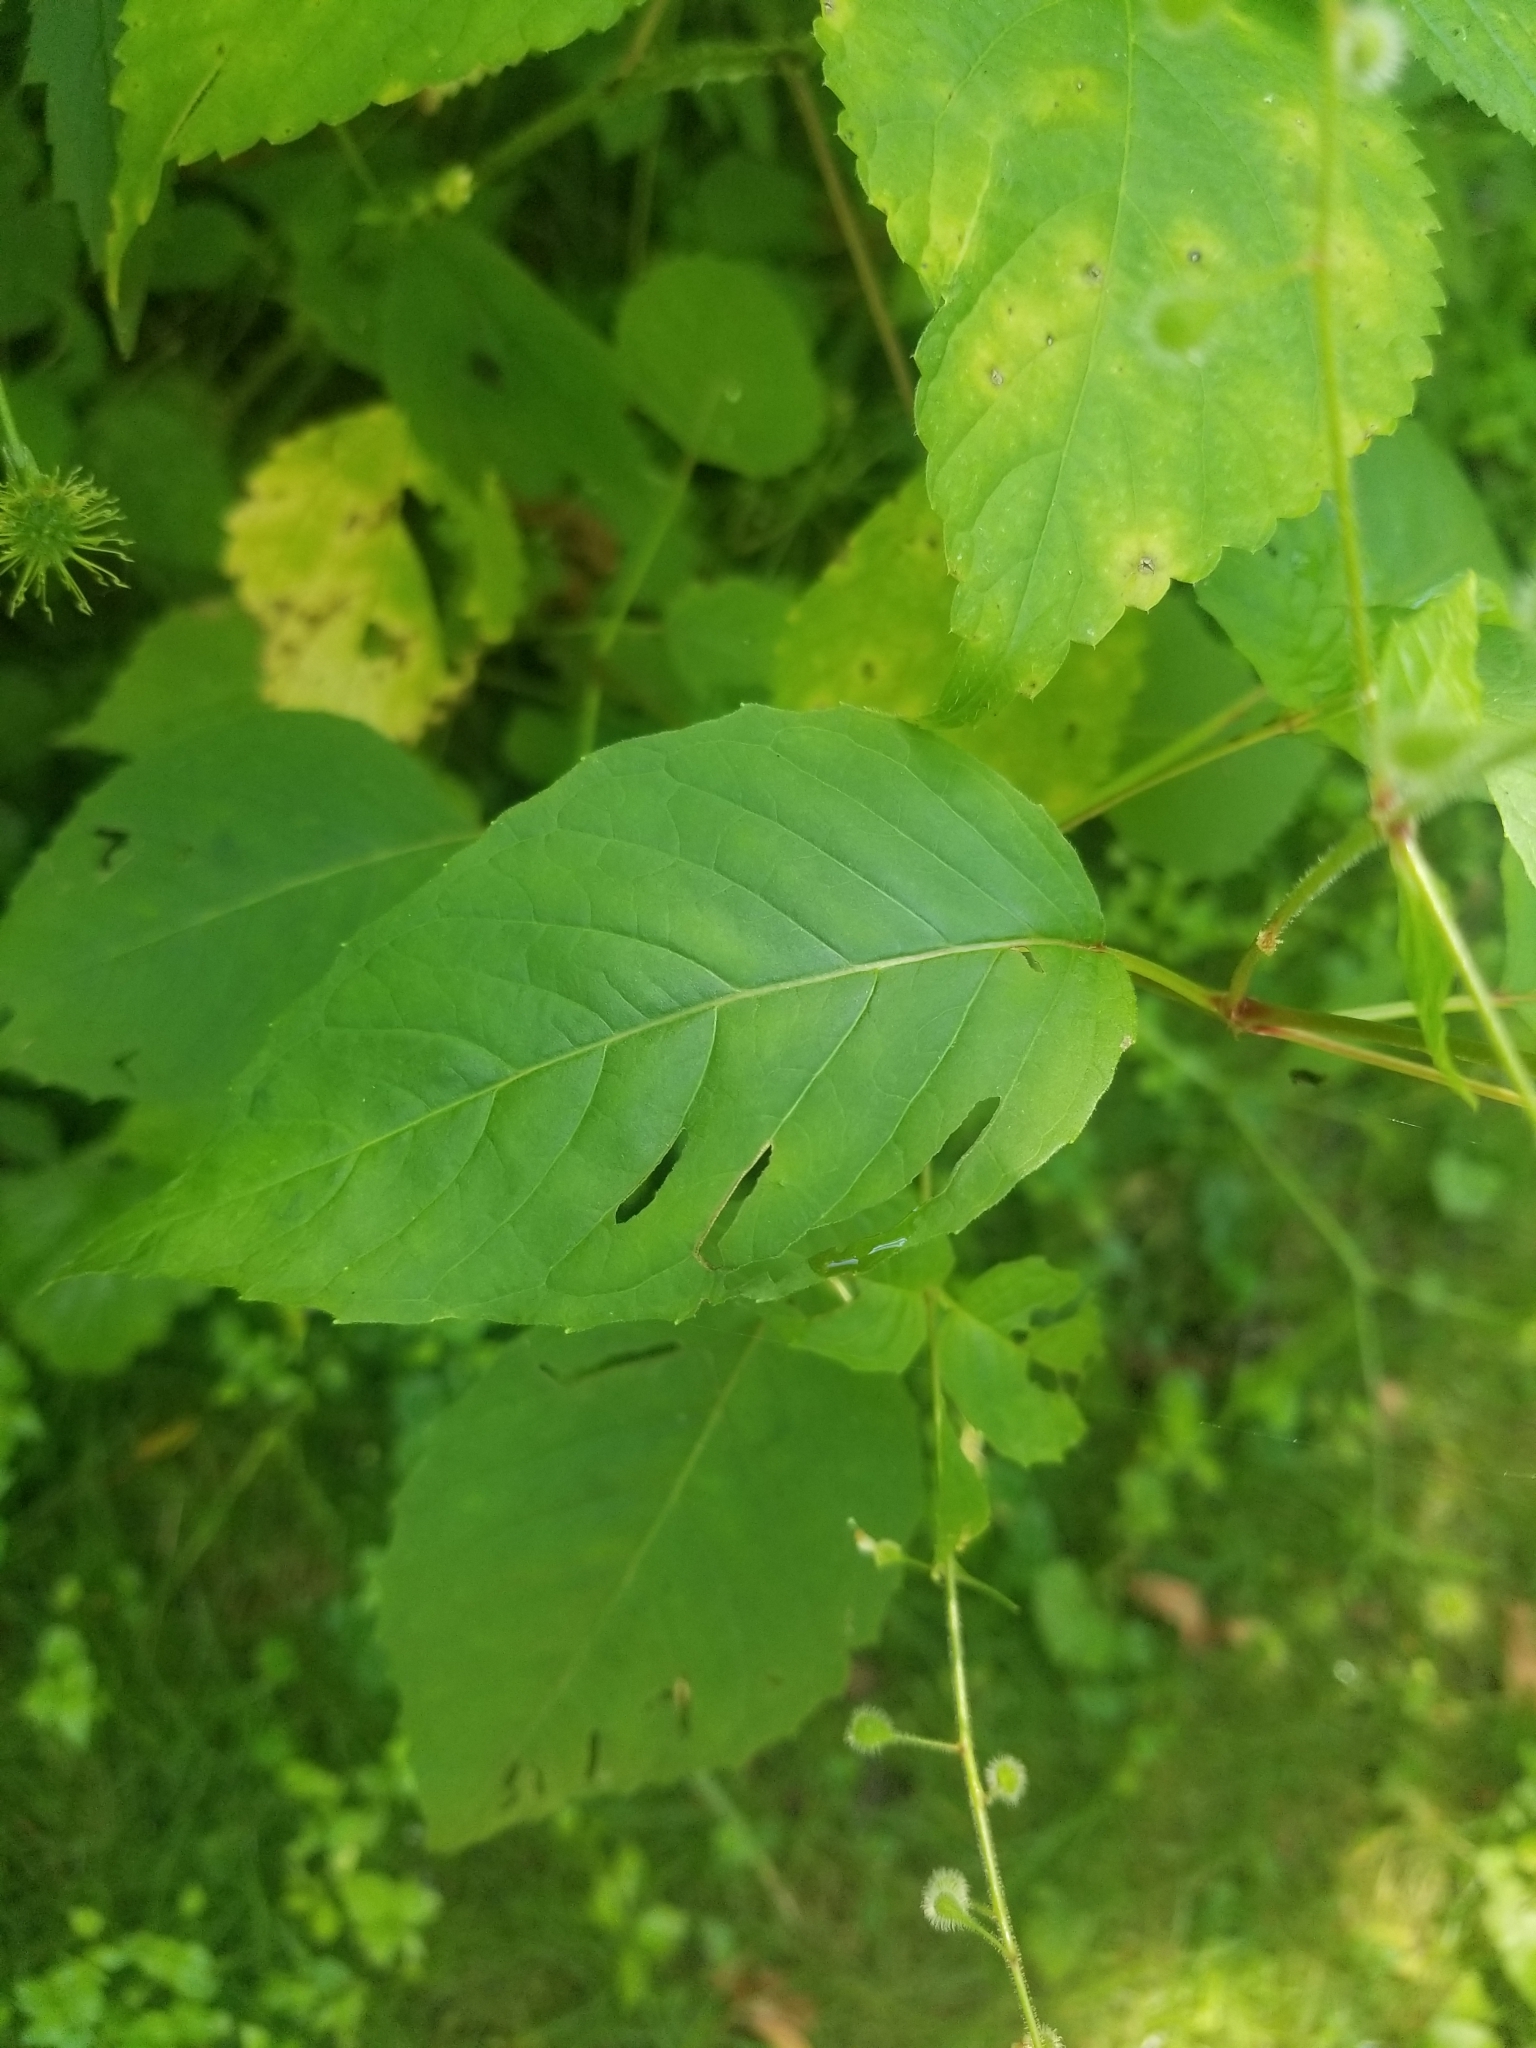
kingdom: Plantae
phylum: Tracheophyta
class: Magnoliopsida
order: Myrtales
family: Onagraceae
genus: Circaea
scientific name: Circaea canadensis
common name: Broad-leaved enchanter's nightshade
